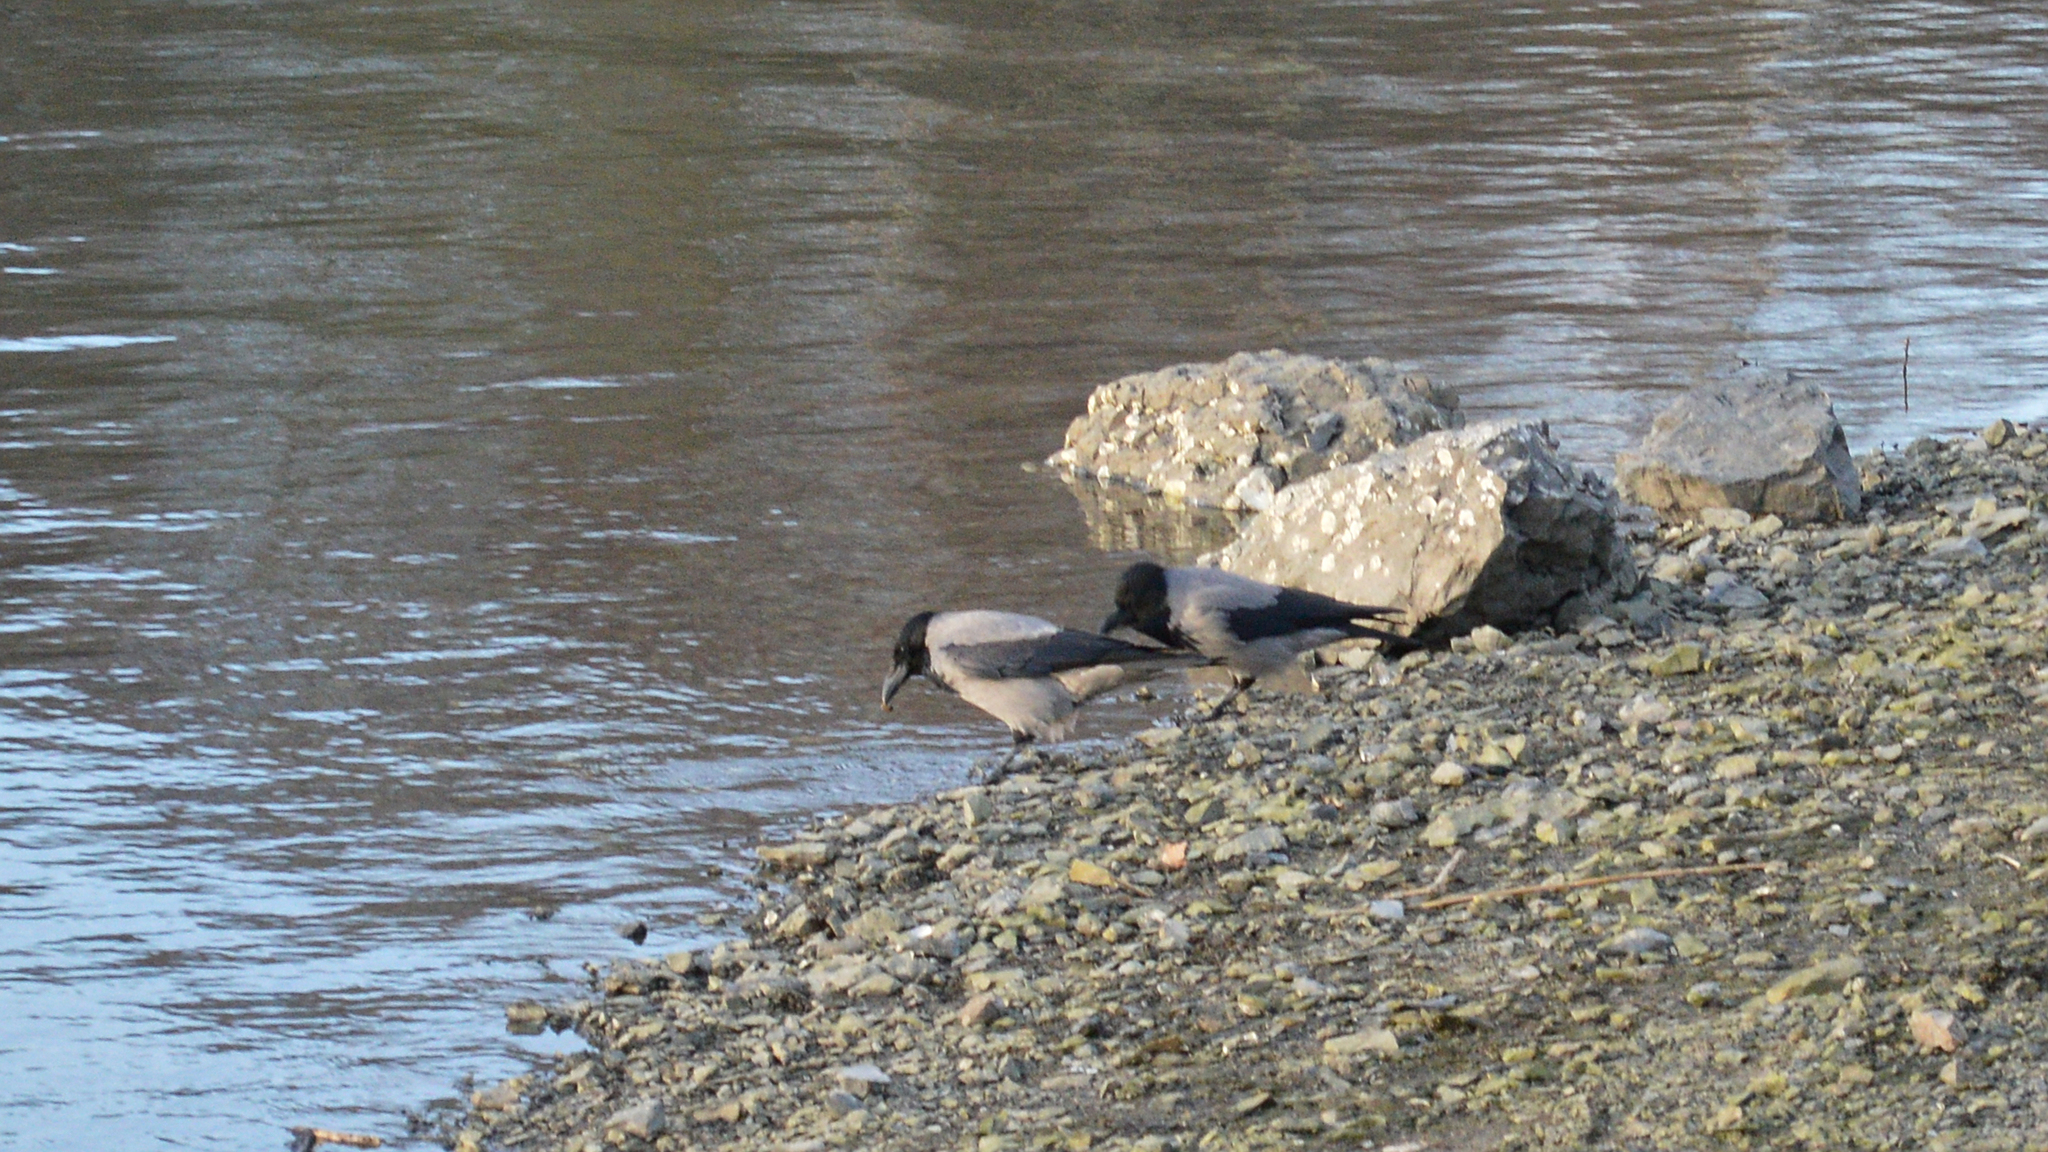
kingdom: Animalia
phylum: Chordata
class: Aves
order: Passeriformes
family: Corvidae
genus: Corvus
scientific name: Corvus cornix
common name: Hooded crow
